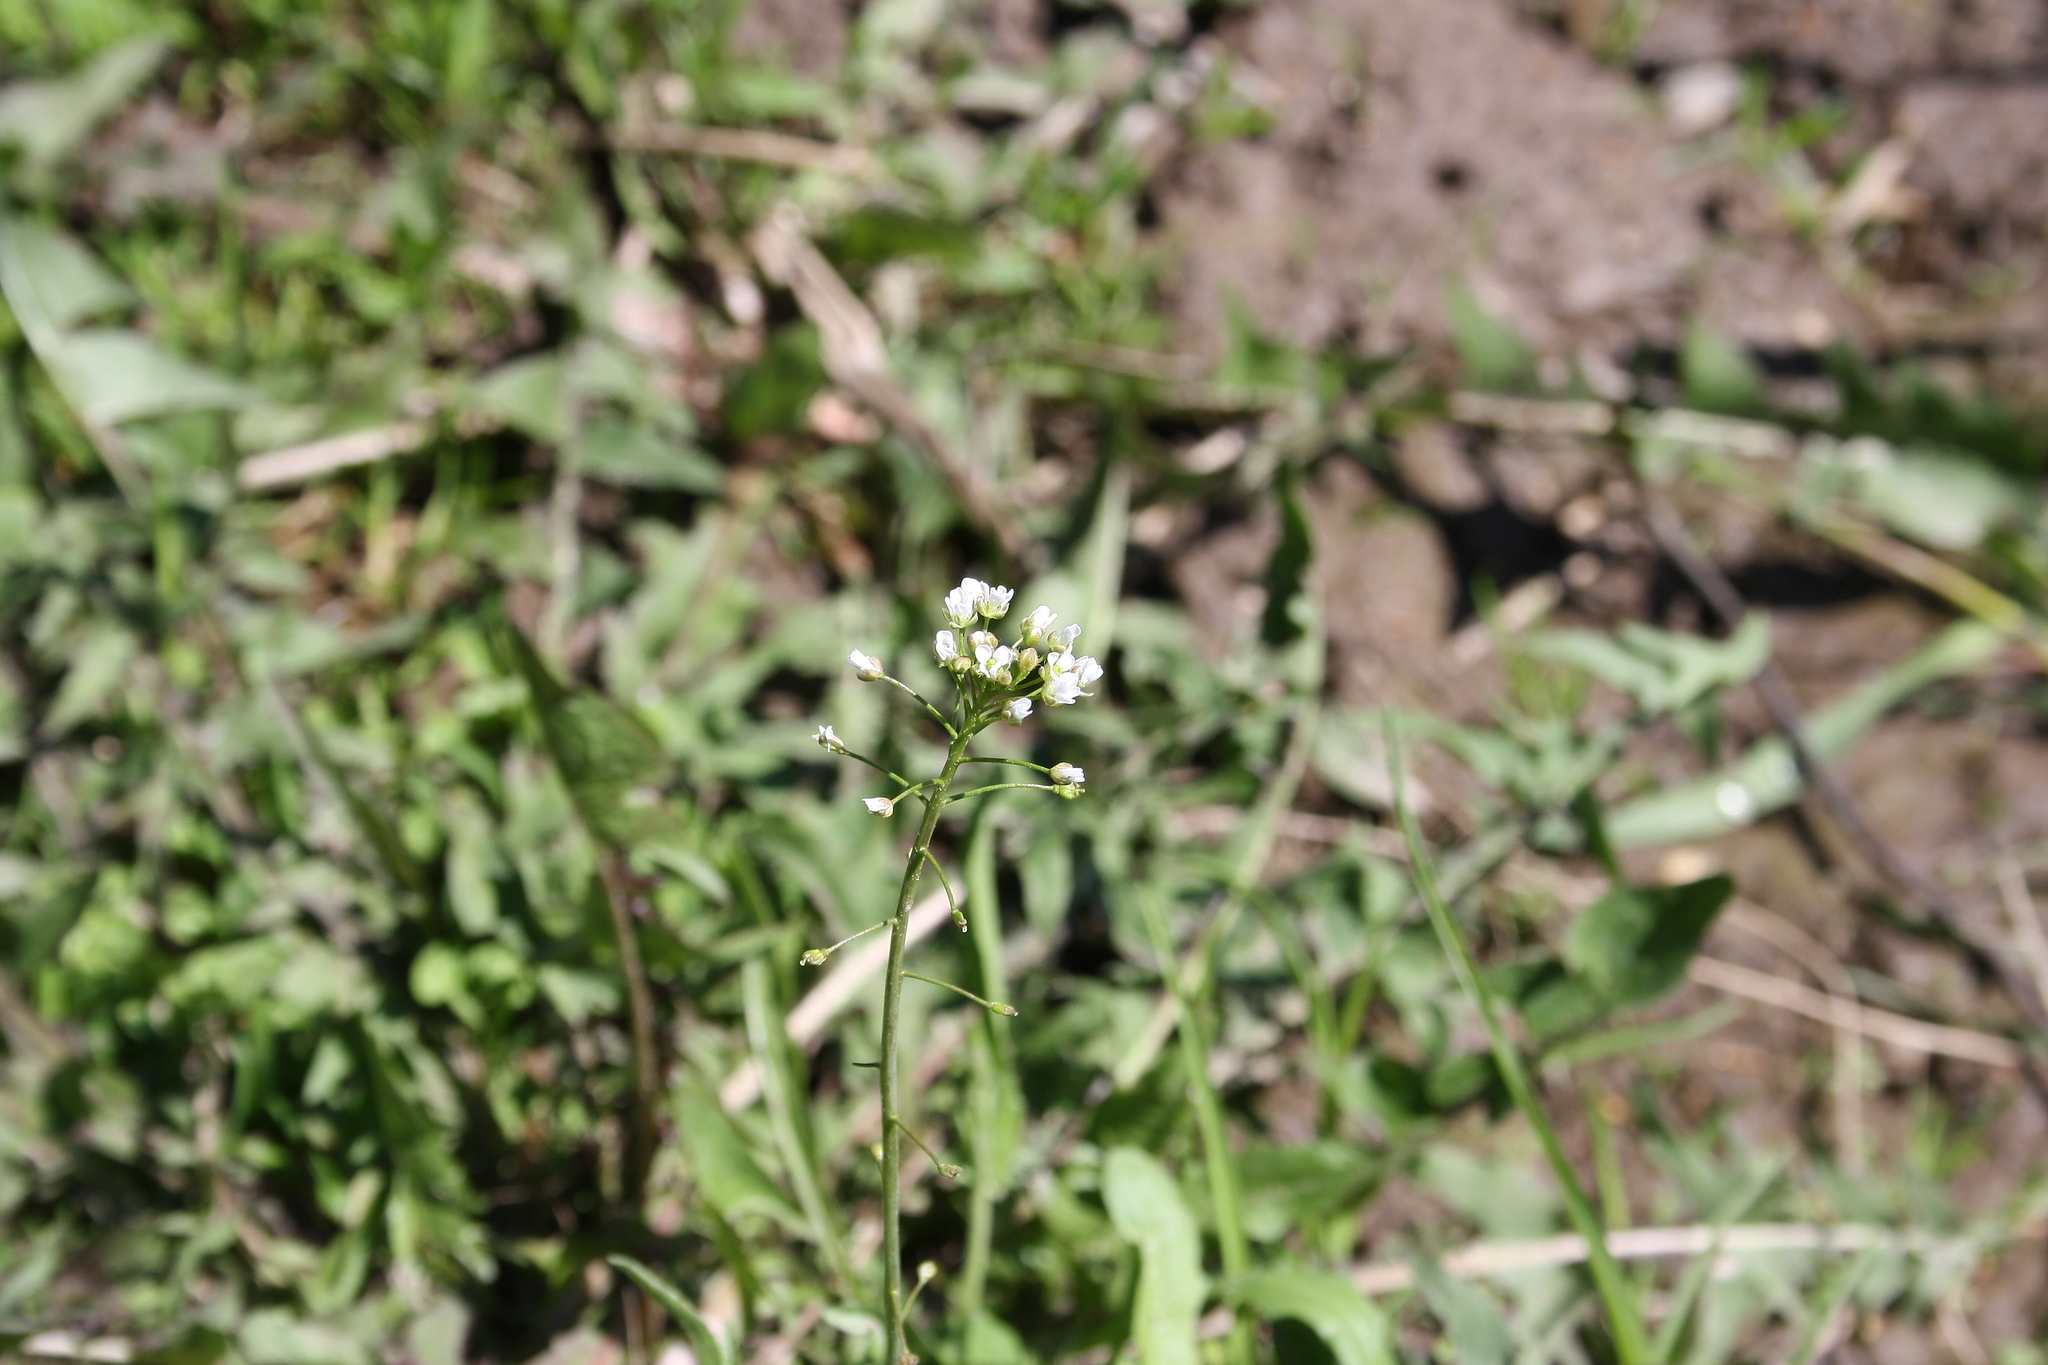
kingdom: Plantae
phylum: Tracheophyta
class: Magnoliopsida
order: Brassicales
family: Brassicaceae
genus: Capsella
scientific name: Capsella bursa-pastoris
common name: Shepherd's purse
